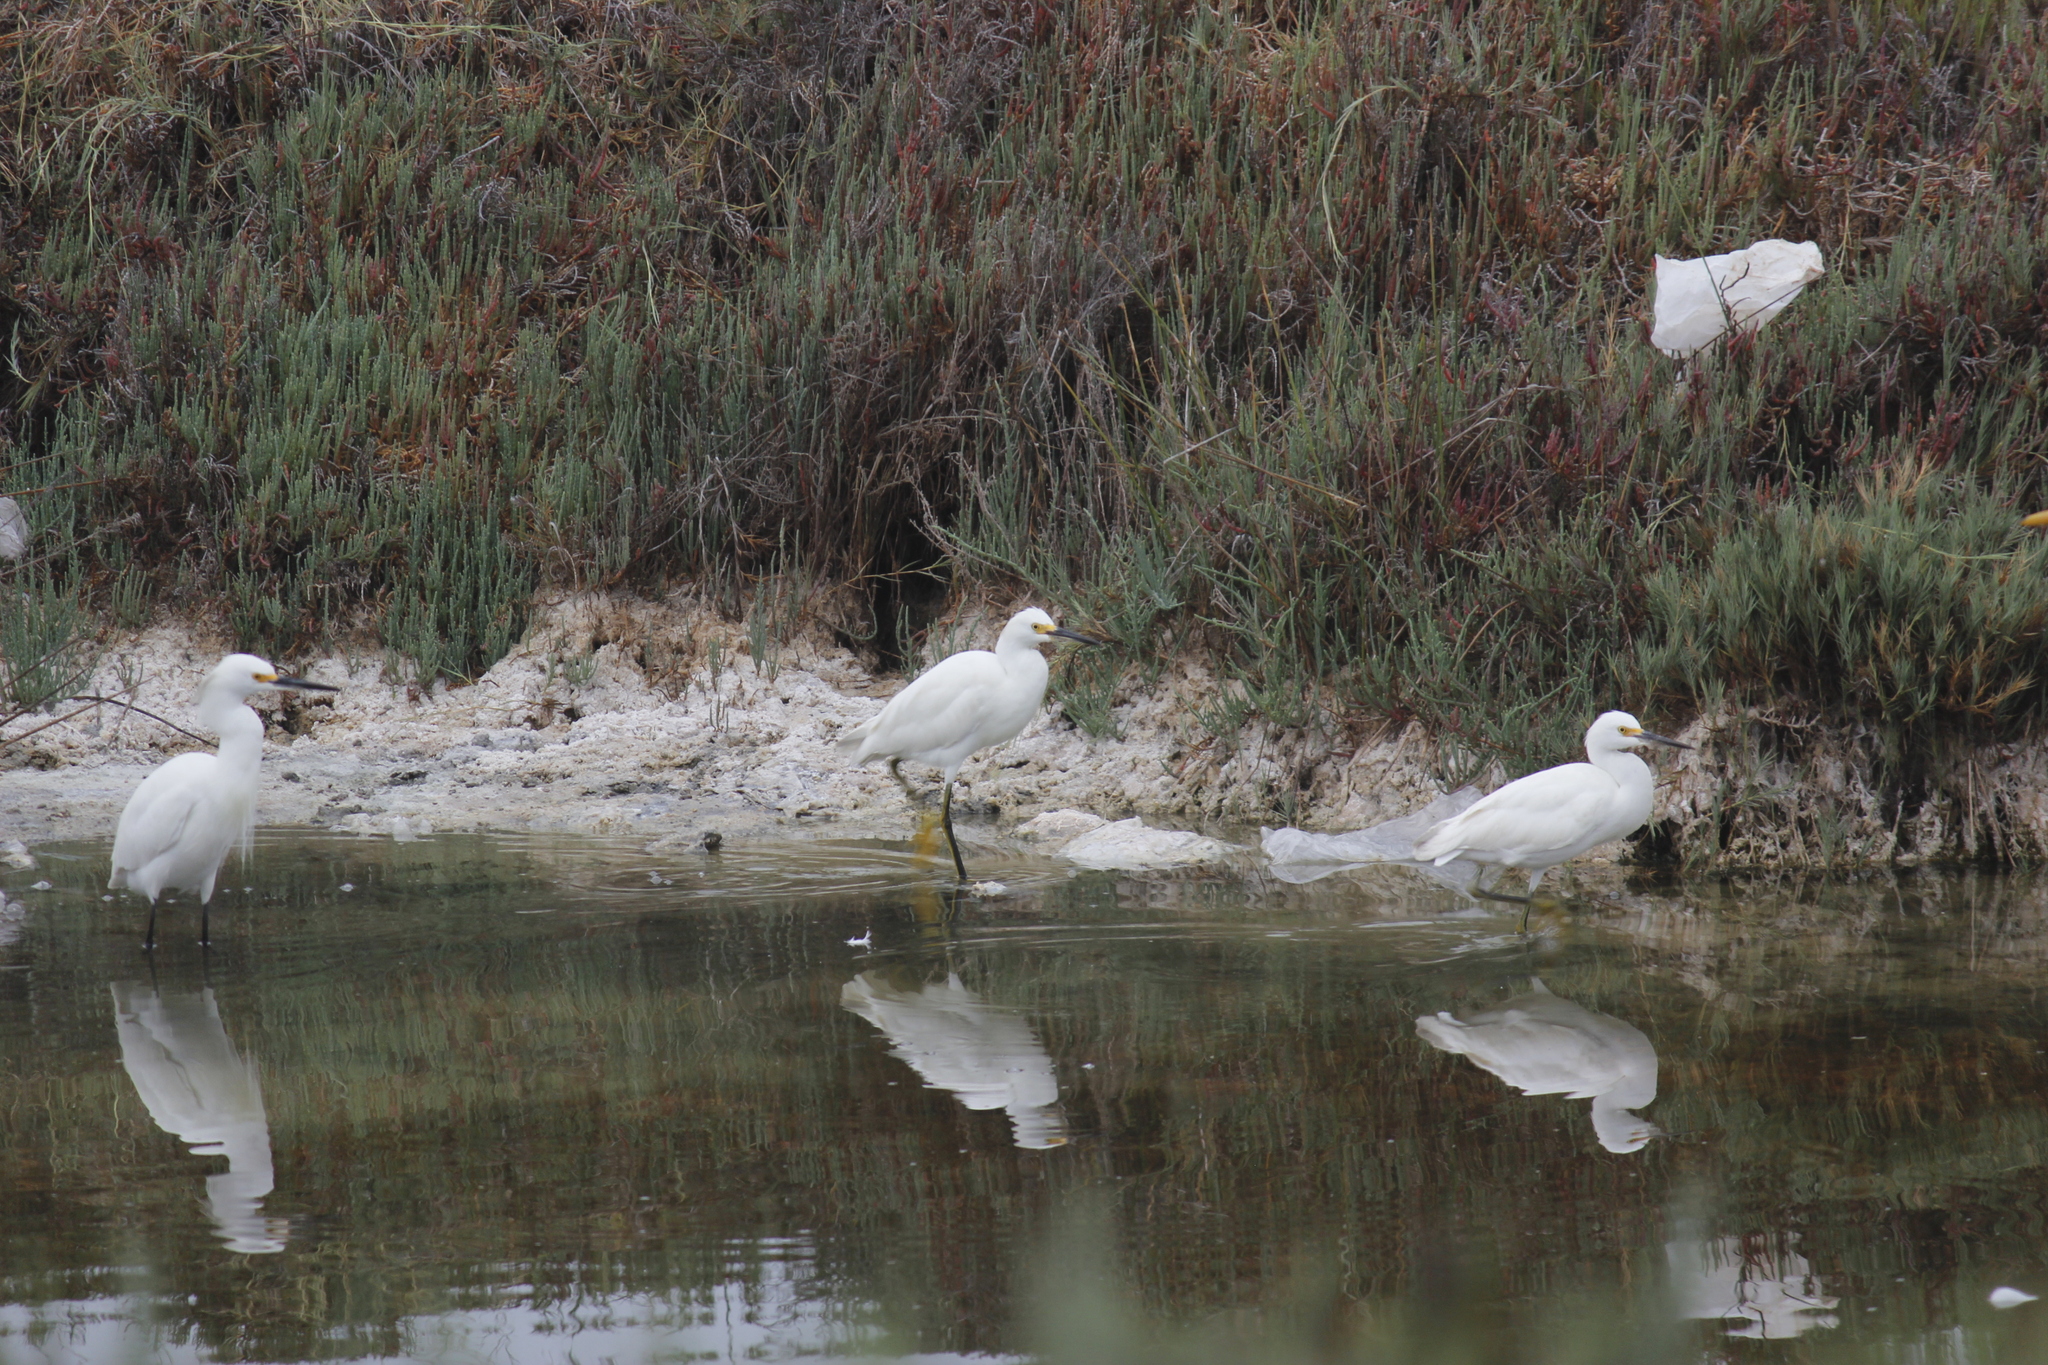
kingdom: Animalia
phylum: Chordata
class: Aves
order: Pelecaniformes
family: Ardeidae
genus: Egretta
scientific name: Egretta thula
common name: Snowy egret
